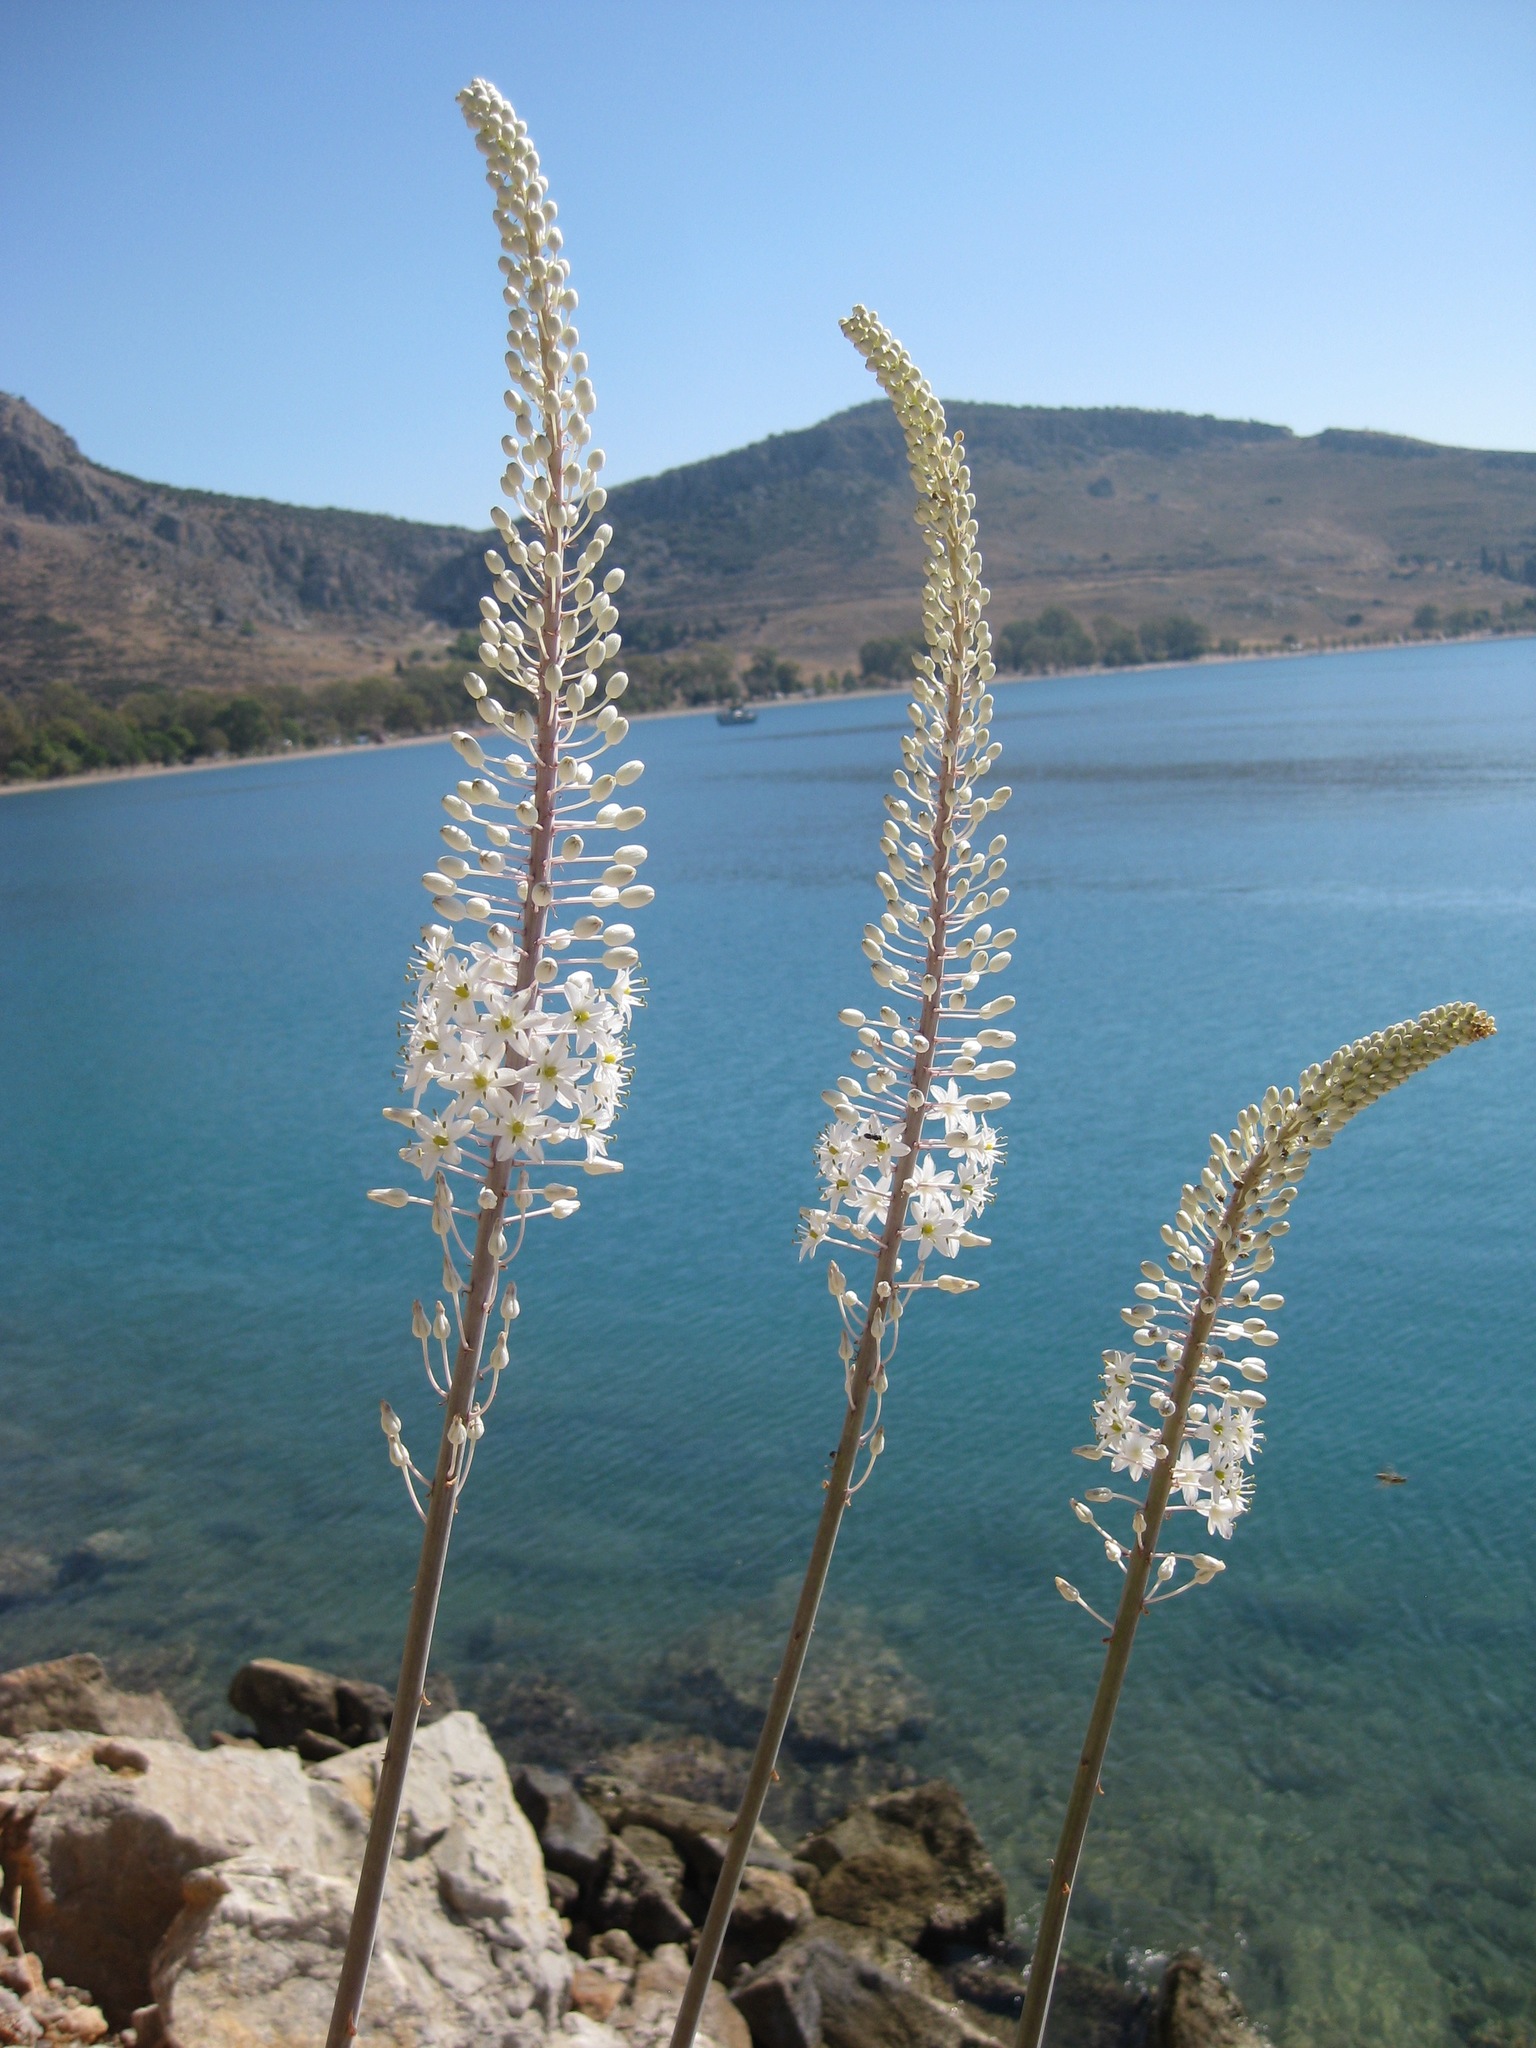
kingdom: Plantae
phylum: Tracheophyta
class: Liliopsida
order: Asparagales
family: Asparagaceae
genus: Drimia
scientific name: Drimia numidica
